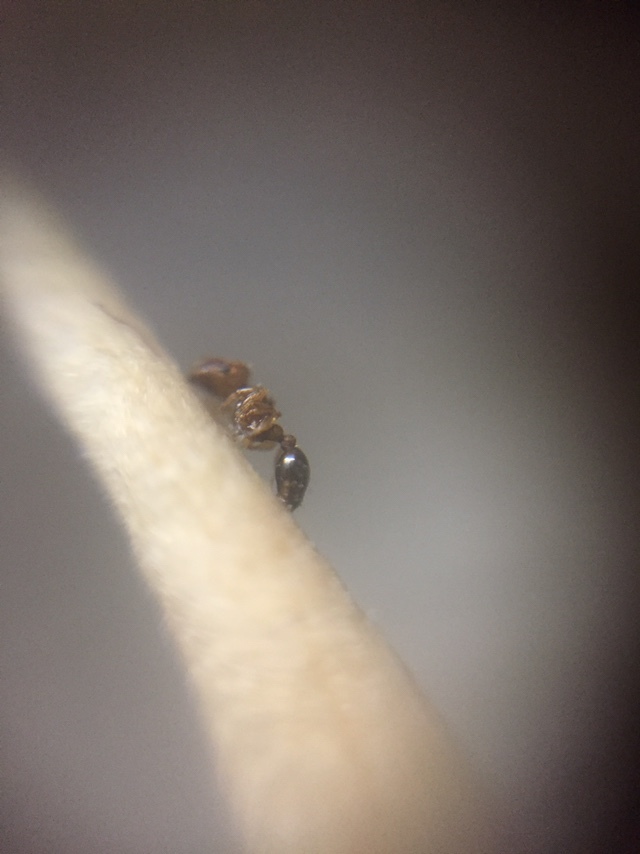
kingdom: Animalia
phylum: Arthropoda
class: Insecta
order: Hymenoptera
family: Formicidae
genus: Tetramorium
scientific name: Tetramorium simillimum
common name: Ant
